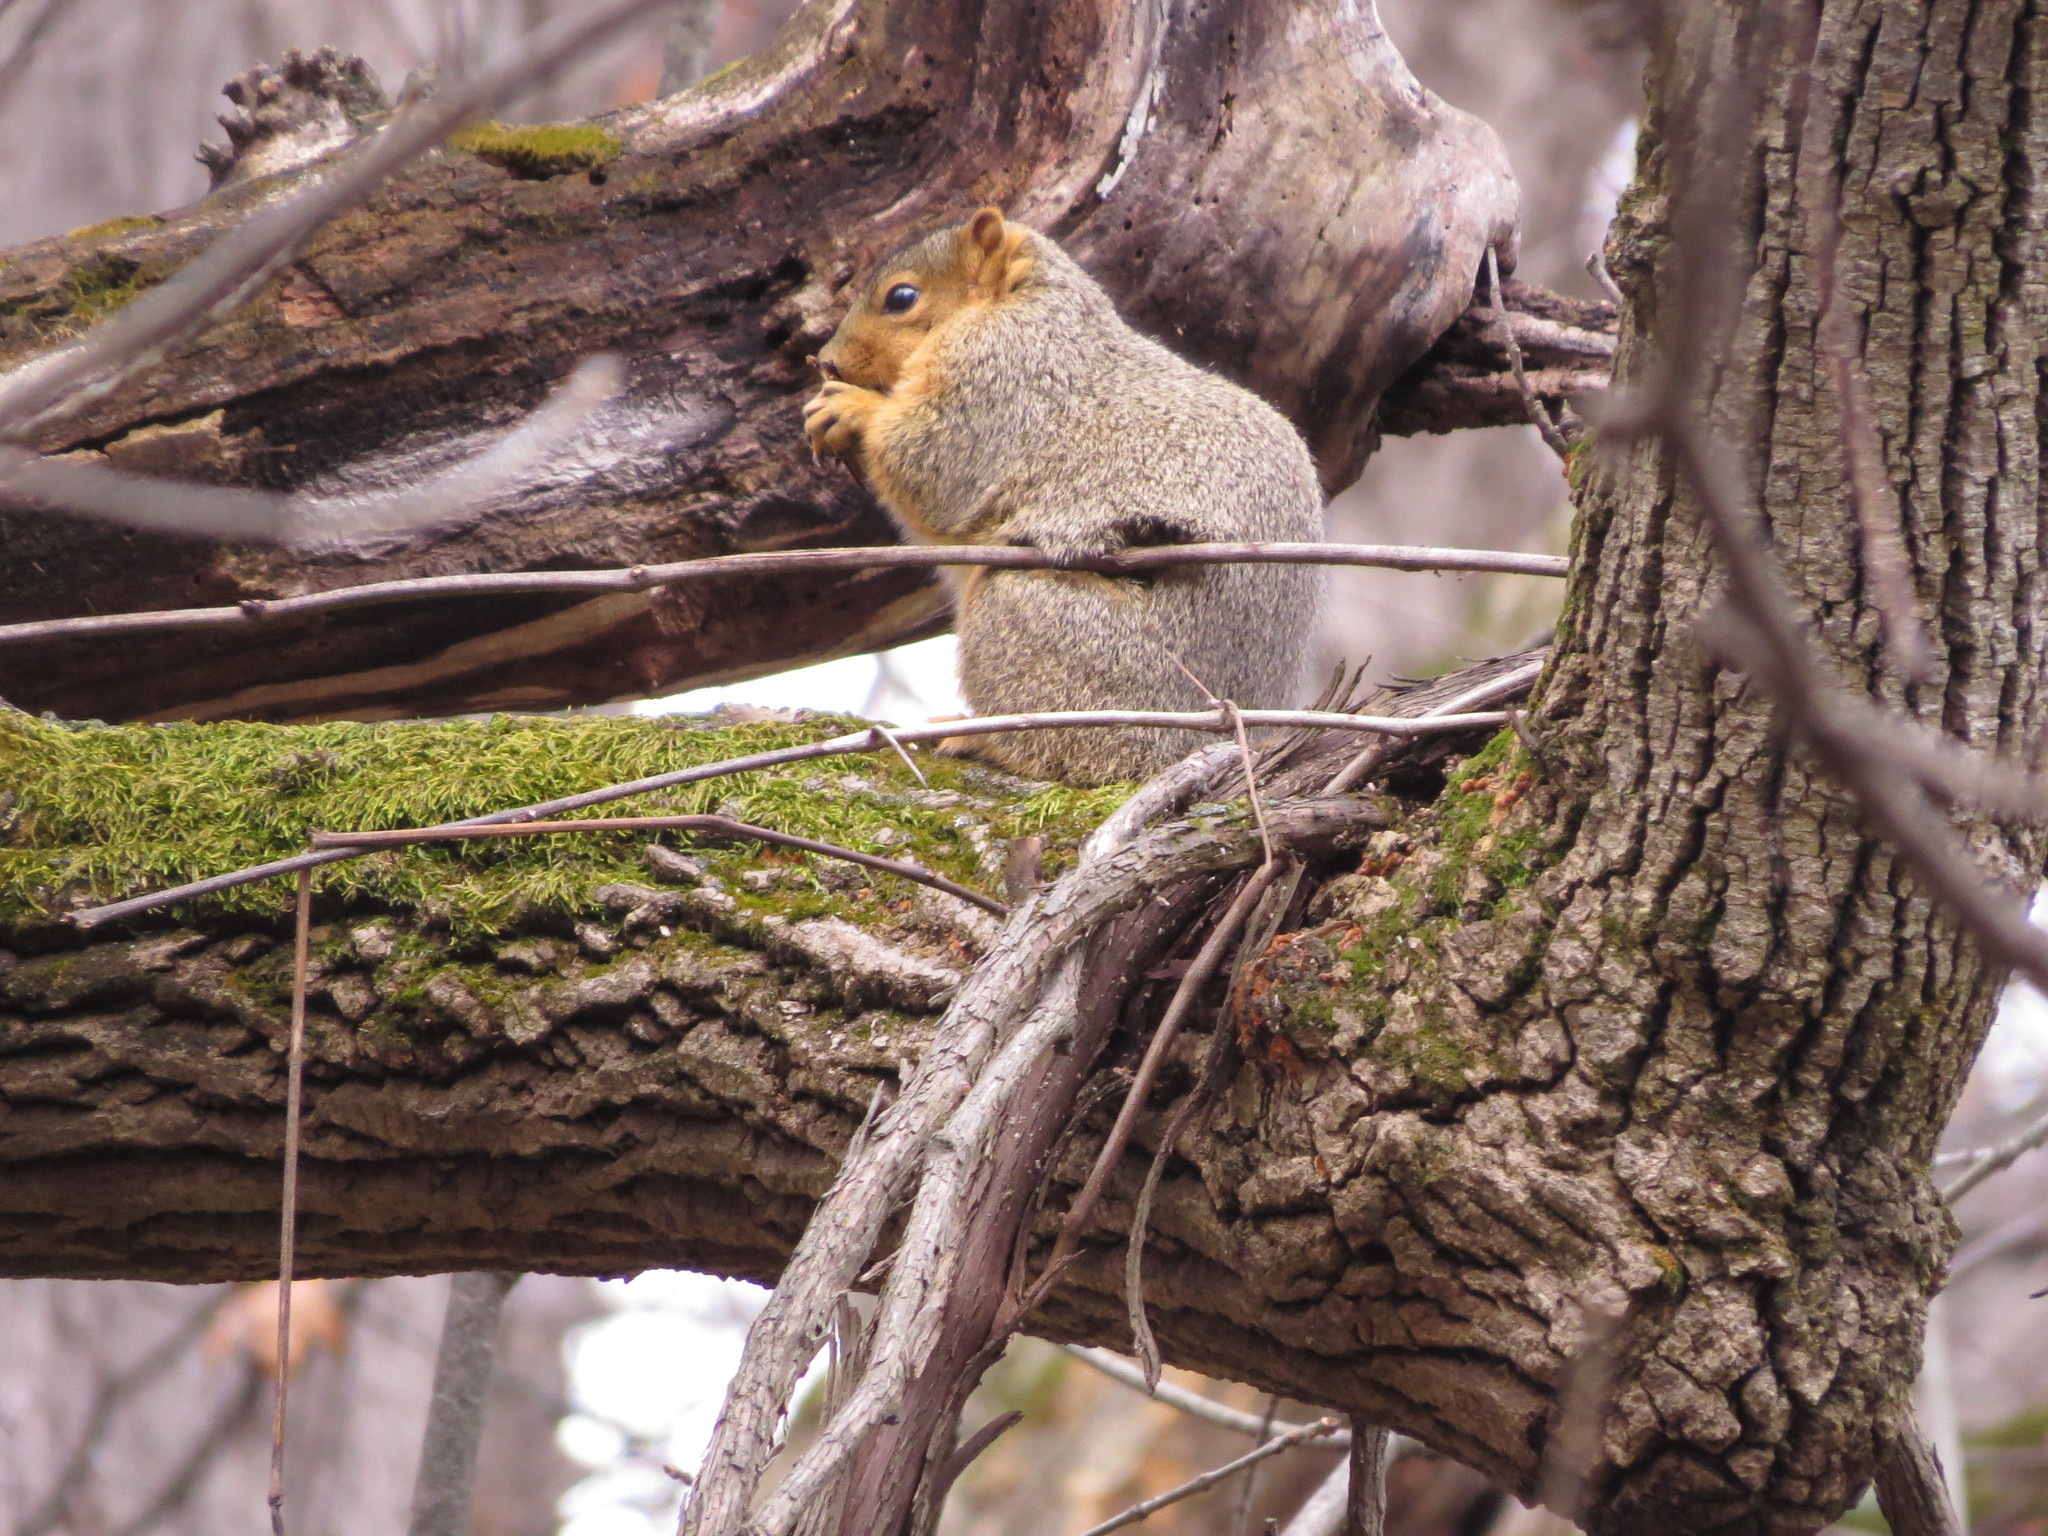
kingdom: Animalia
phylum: Chordata
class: Mammalia
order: Rodentia
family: Sciuridae
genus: Sciurus
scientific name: Sciurus niger
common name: Fox squirrel
